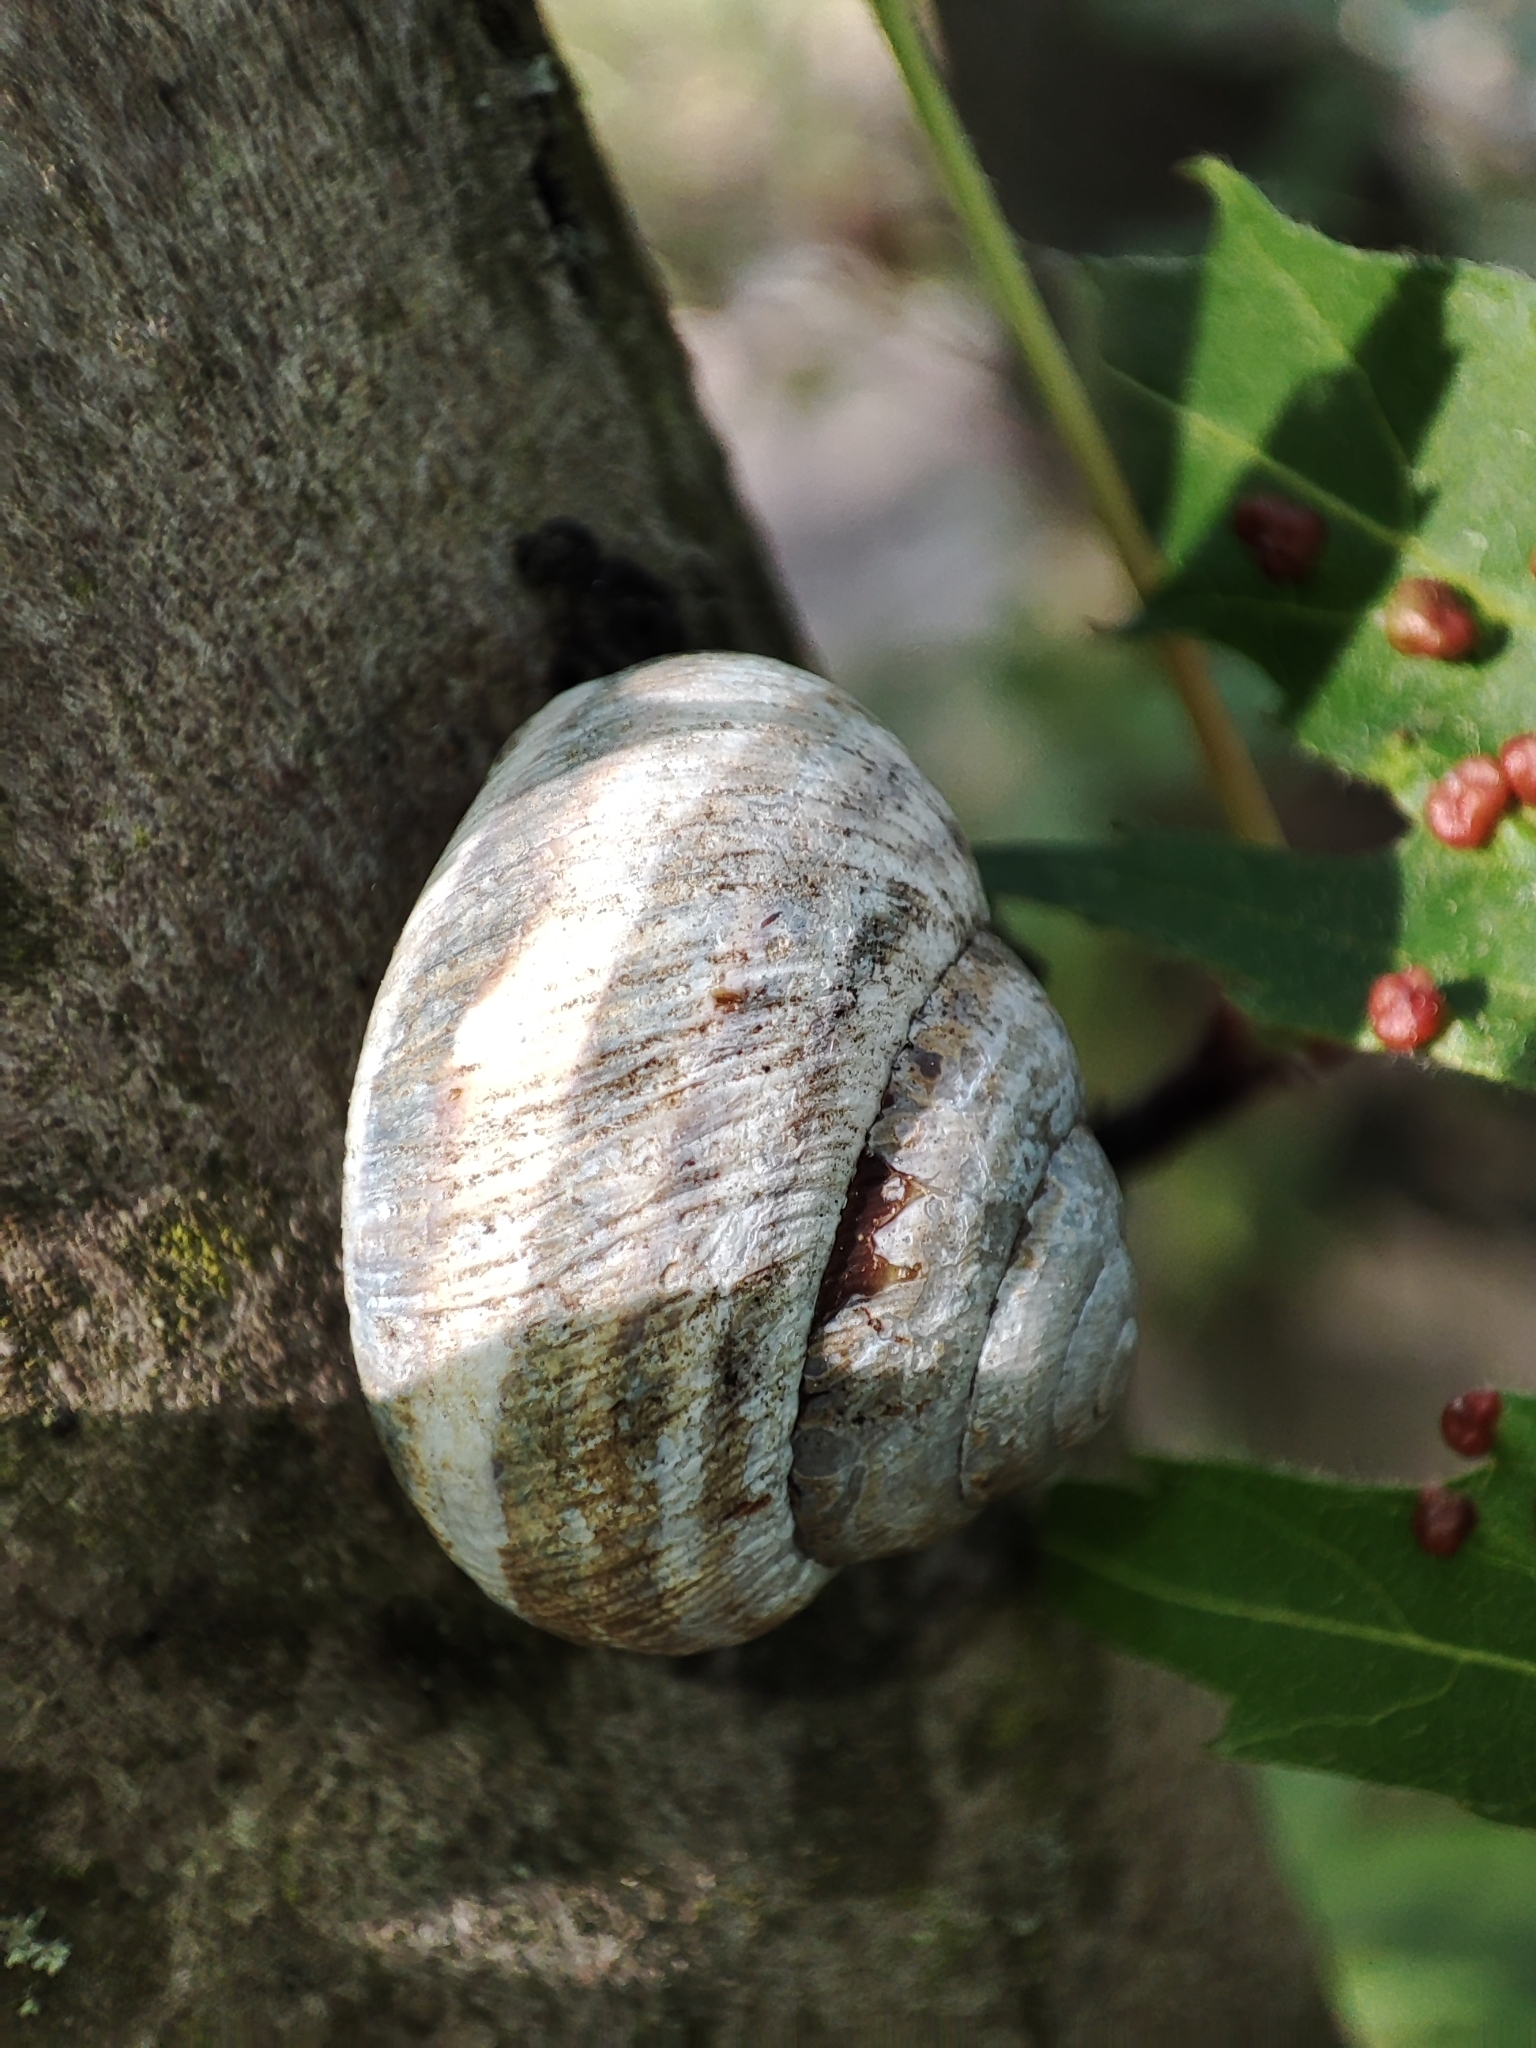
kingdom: Animalia
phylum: Mollusca
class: Gastropoda
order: Stylommatophora
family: Helicidae
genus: Caucasotachea
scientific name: Caucasotachea vindobonensis
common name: European helicid land snail
